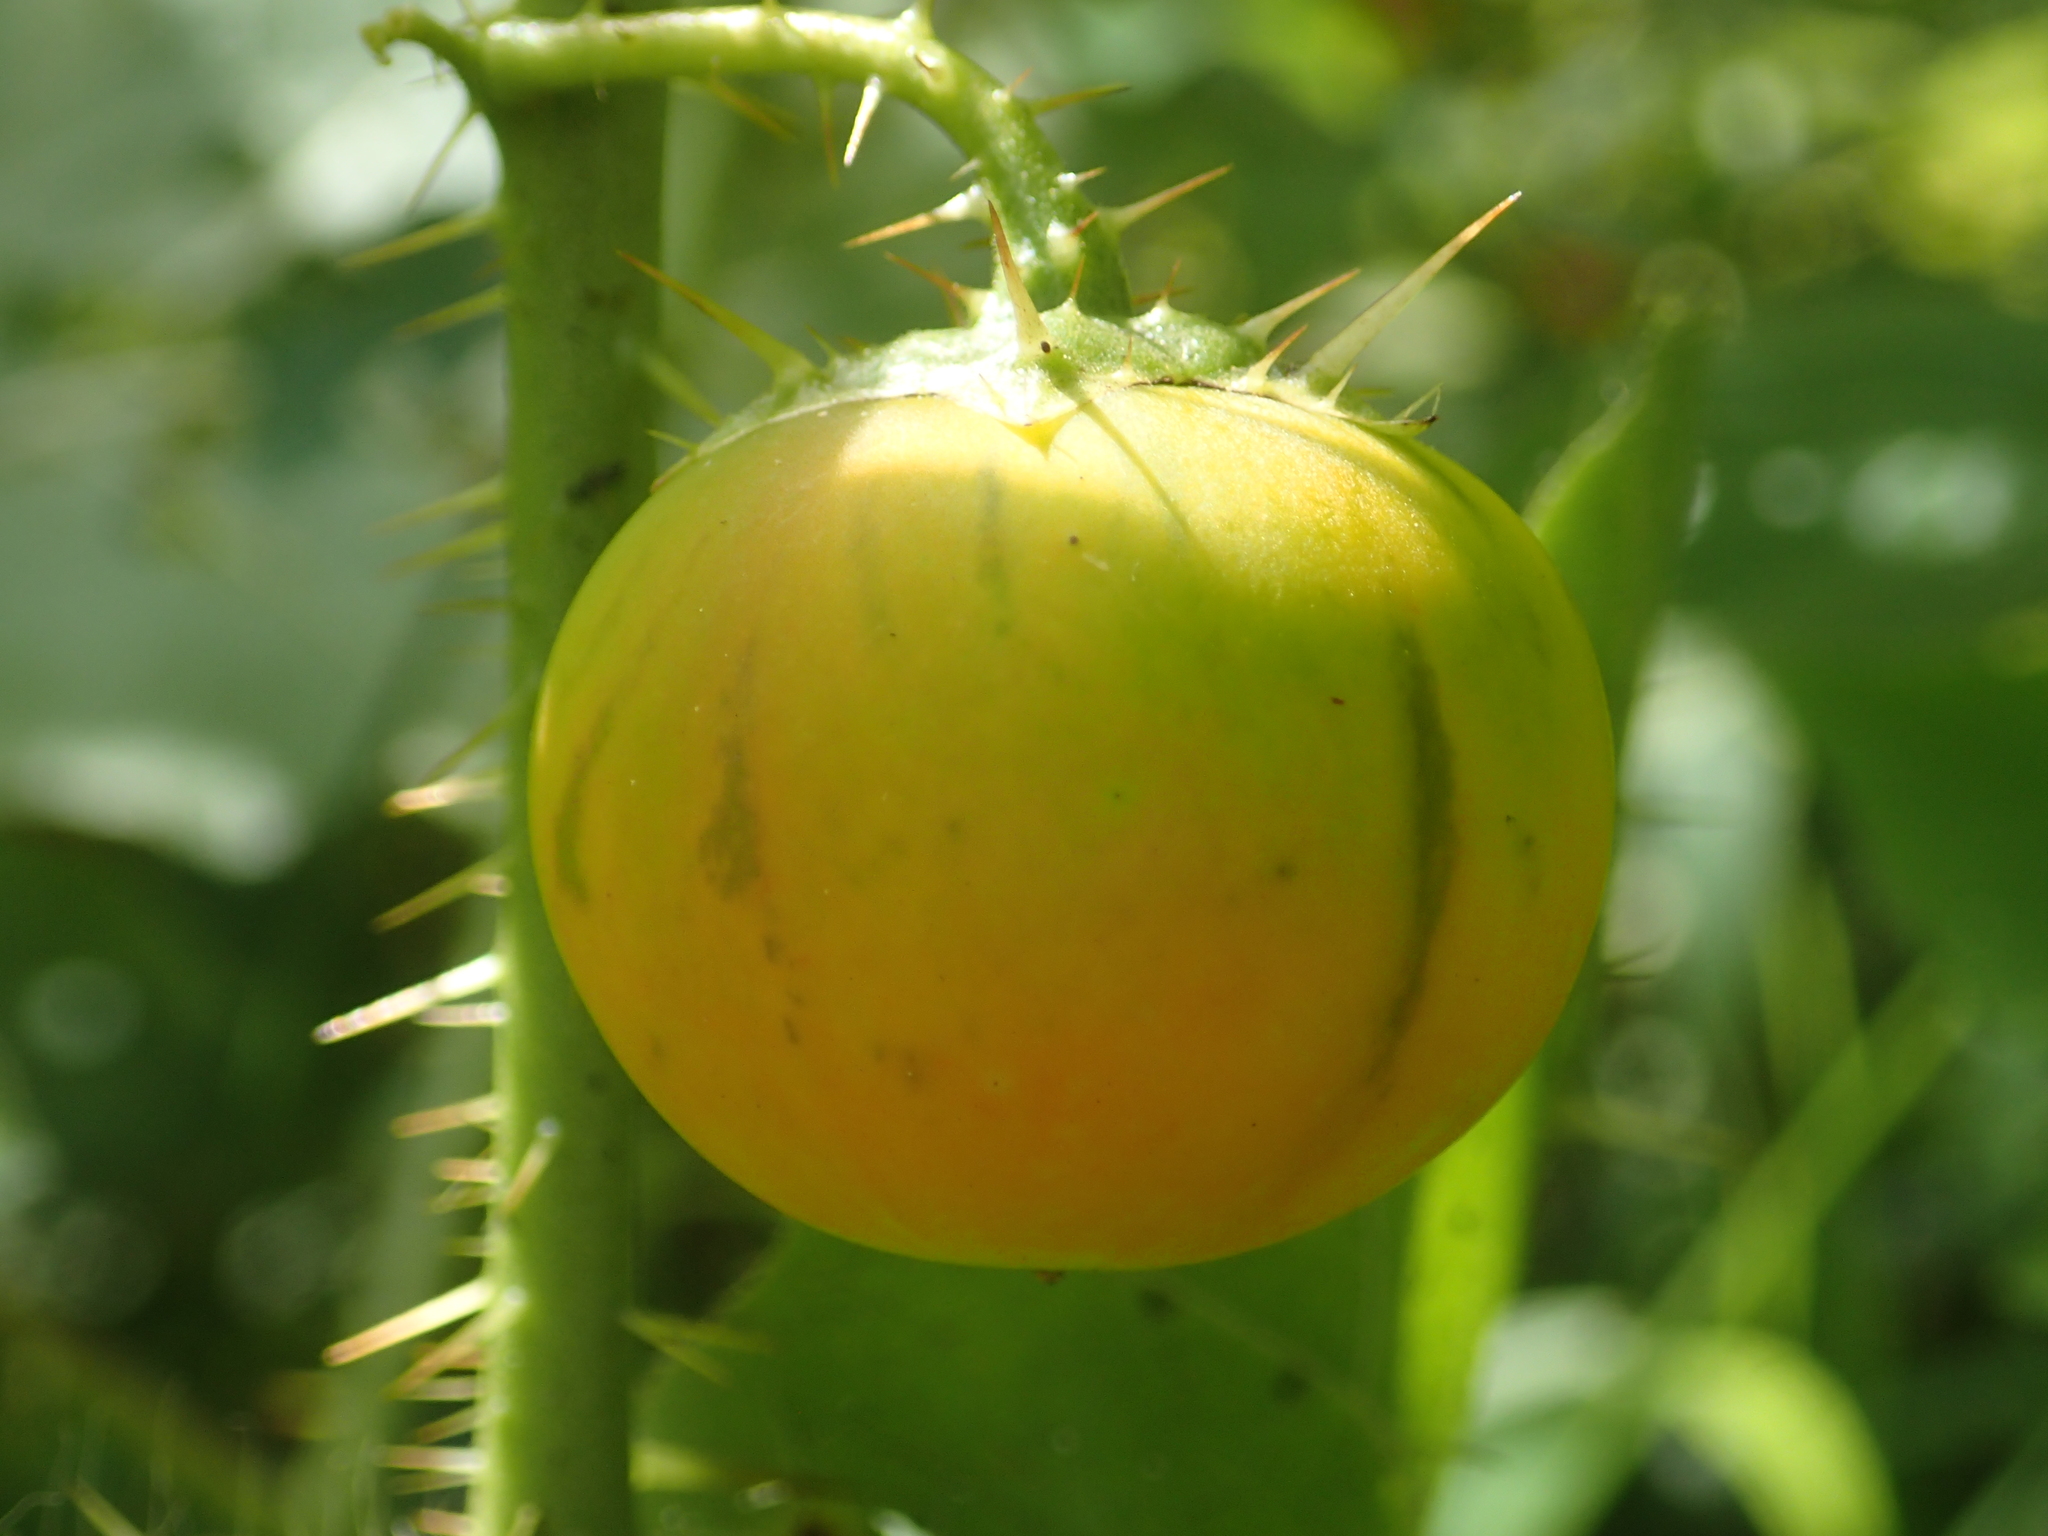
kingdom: Plantae
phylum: Tracheophyta
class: Magnoliopsida
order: Solanales
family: Solanaceae
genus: Solanum
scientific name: Solanum capsicoides
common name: Cockroach berry
